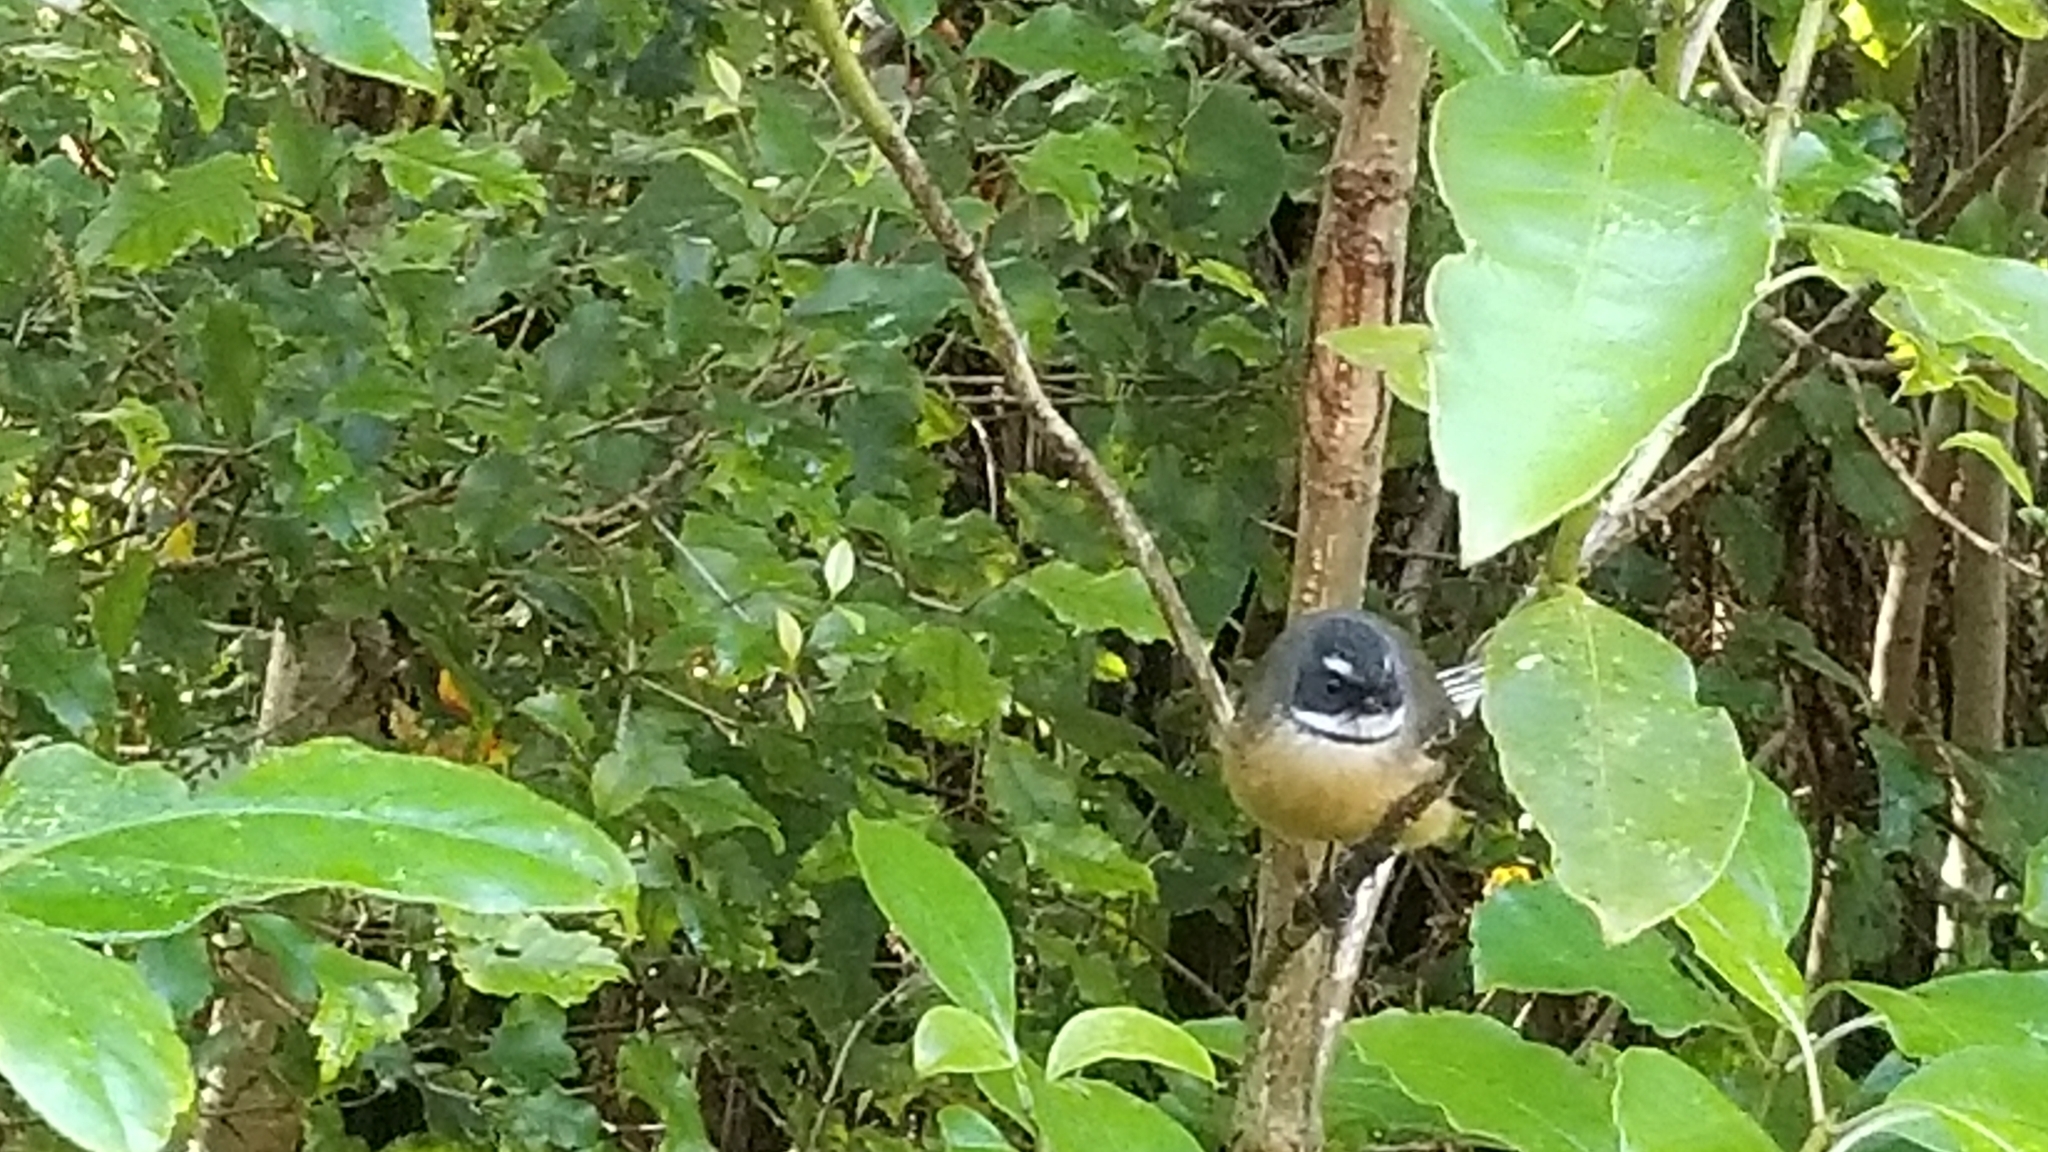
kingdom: Animalia
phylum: Chordata
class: Aves
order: Passeriformes
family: Rhipiduridae
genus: Rhipidura
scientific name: Rhipidura fuliginosa
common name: New zealand fantail
